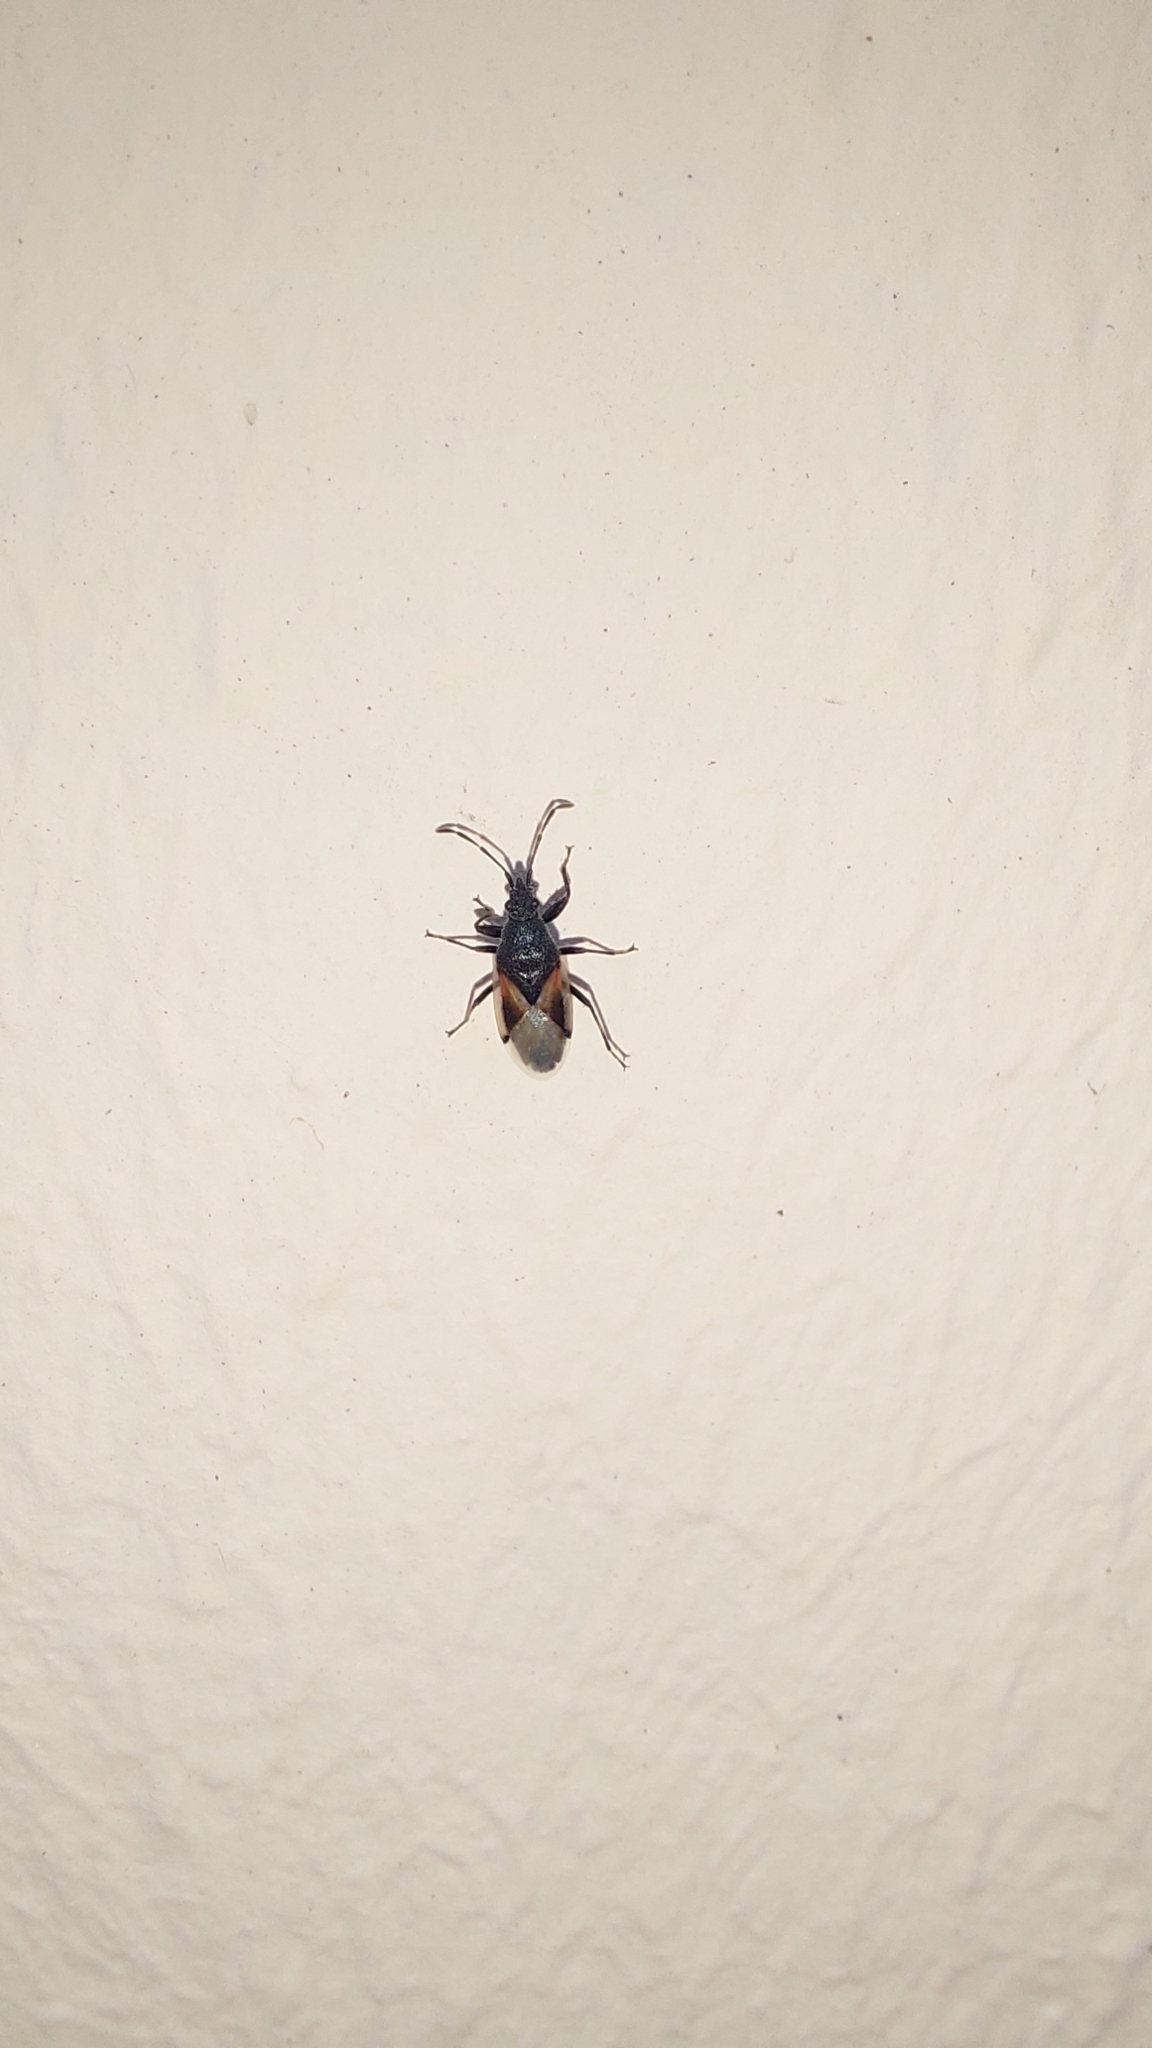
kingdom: Animalia
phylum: Arthropoda
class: Insecta
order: Hemiptera
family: Oxycarenidae
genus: Oxycarenus
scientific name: Oxycarenus lavaterae
